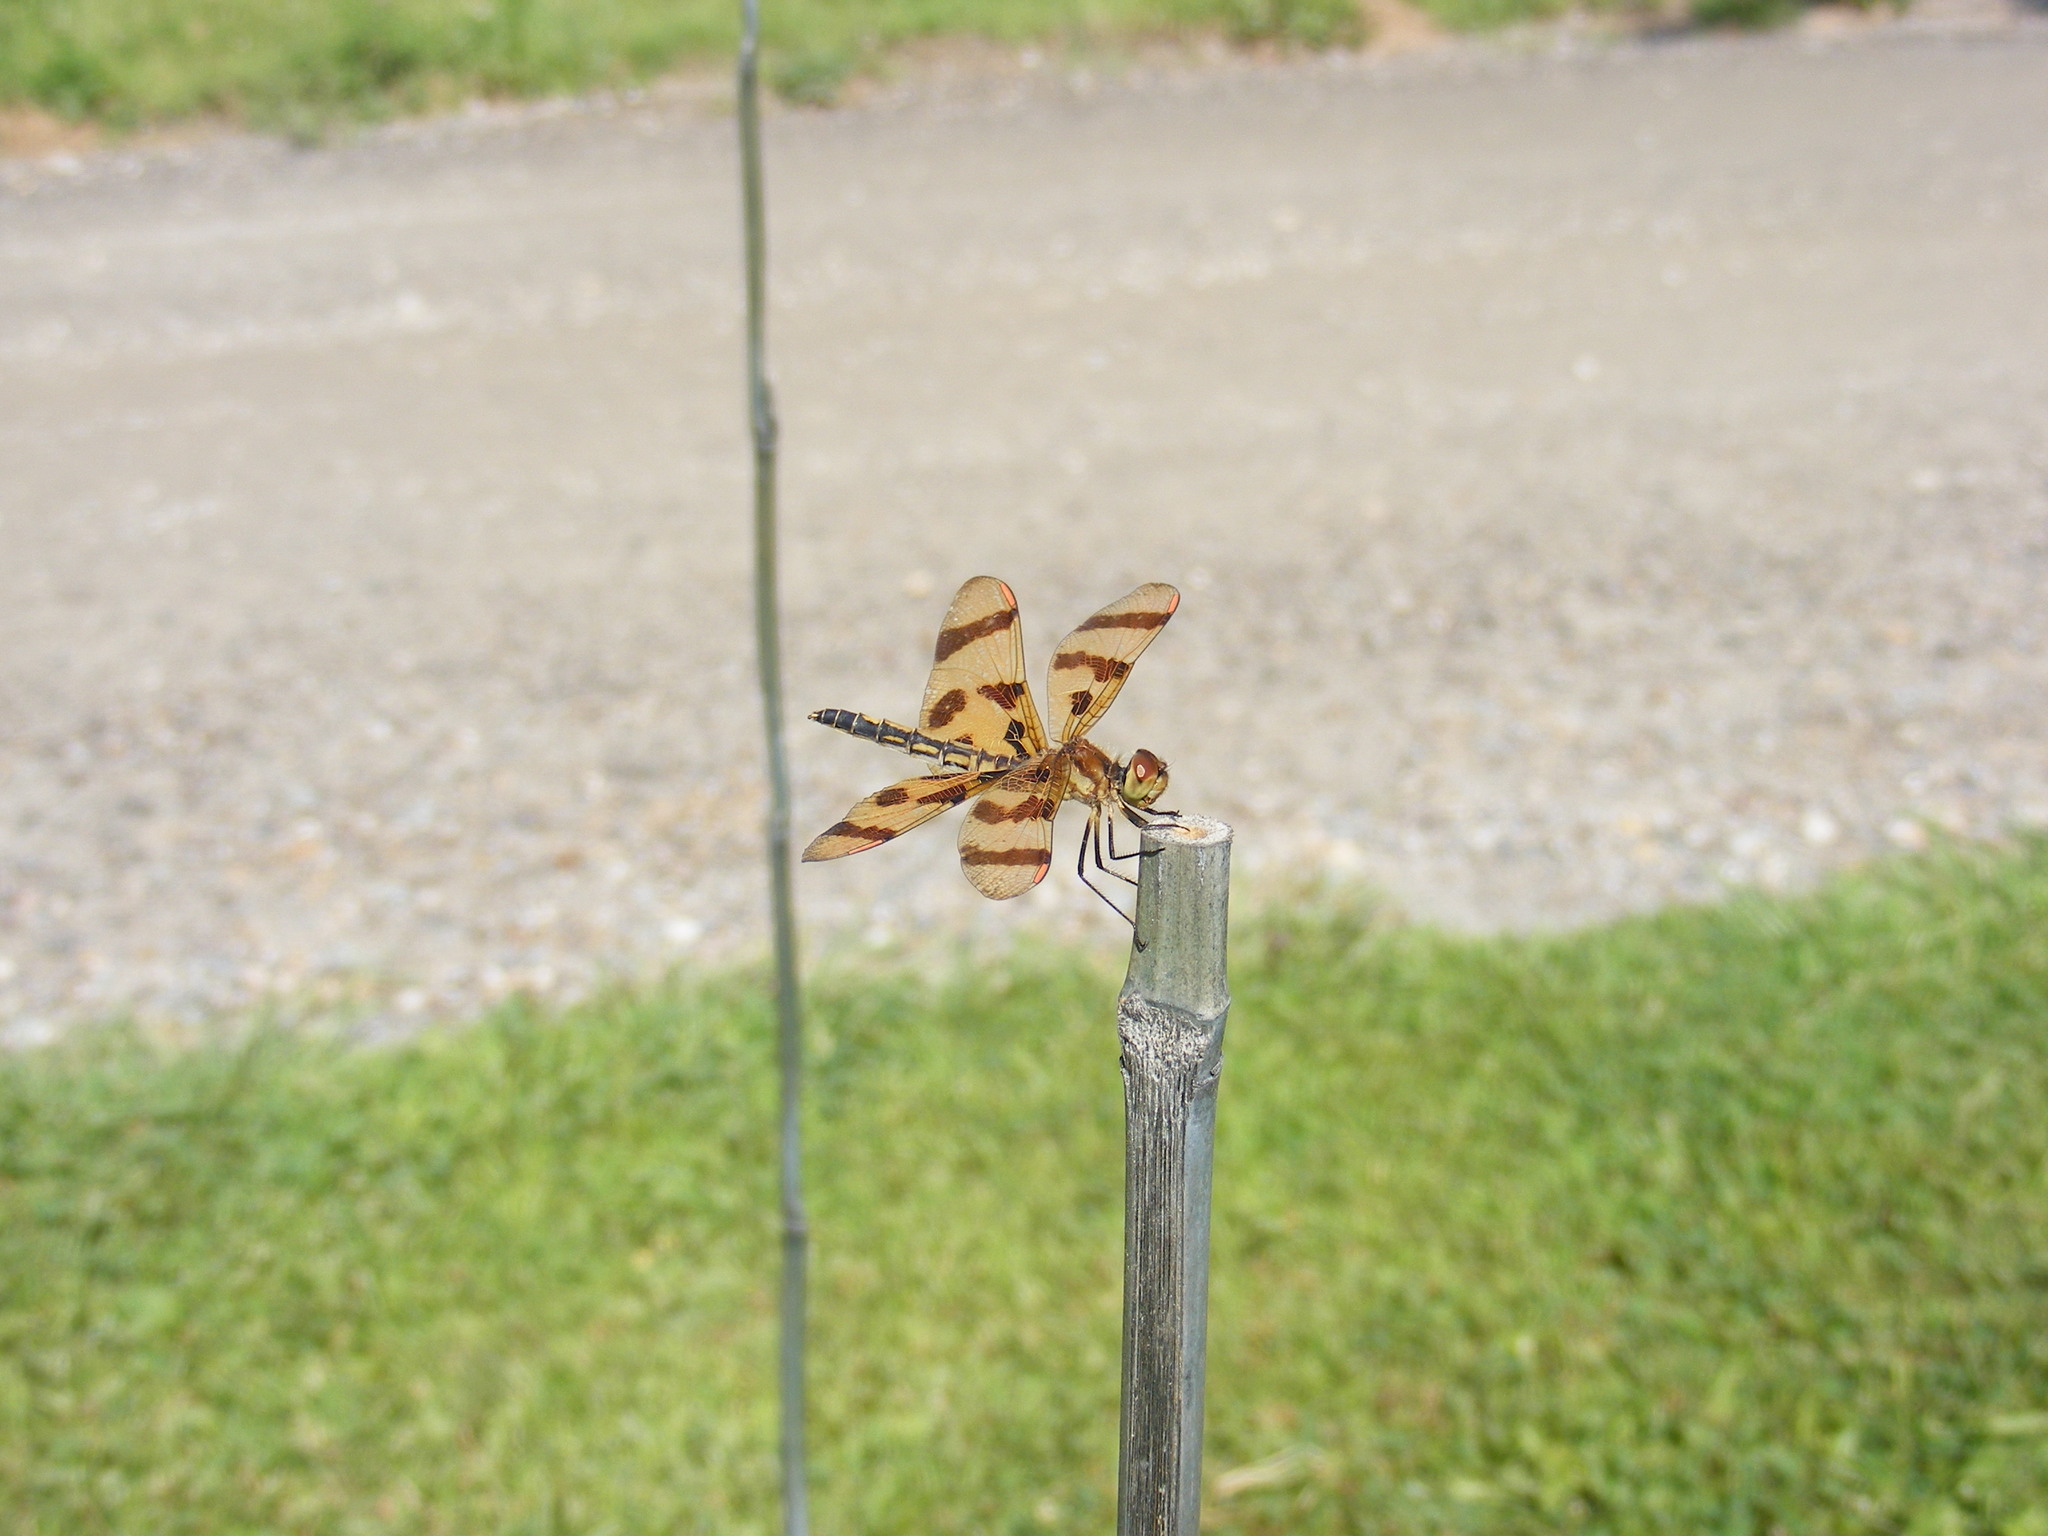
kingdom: Animalia
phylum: Arthropoda
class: Insecta
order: Odonata
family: Libellulidae
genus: Celithemis
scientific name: Celithemis eponina
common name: Halloween pennant
